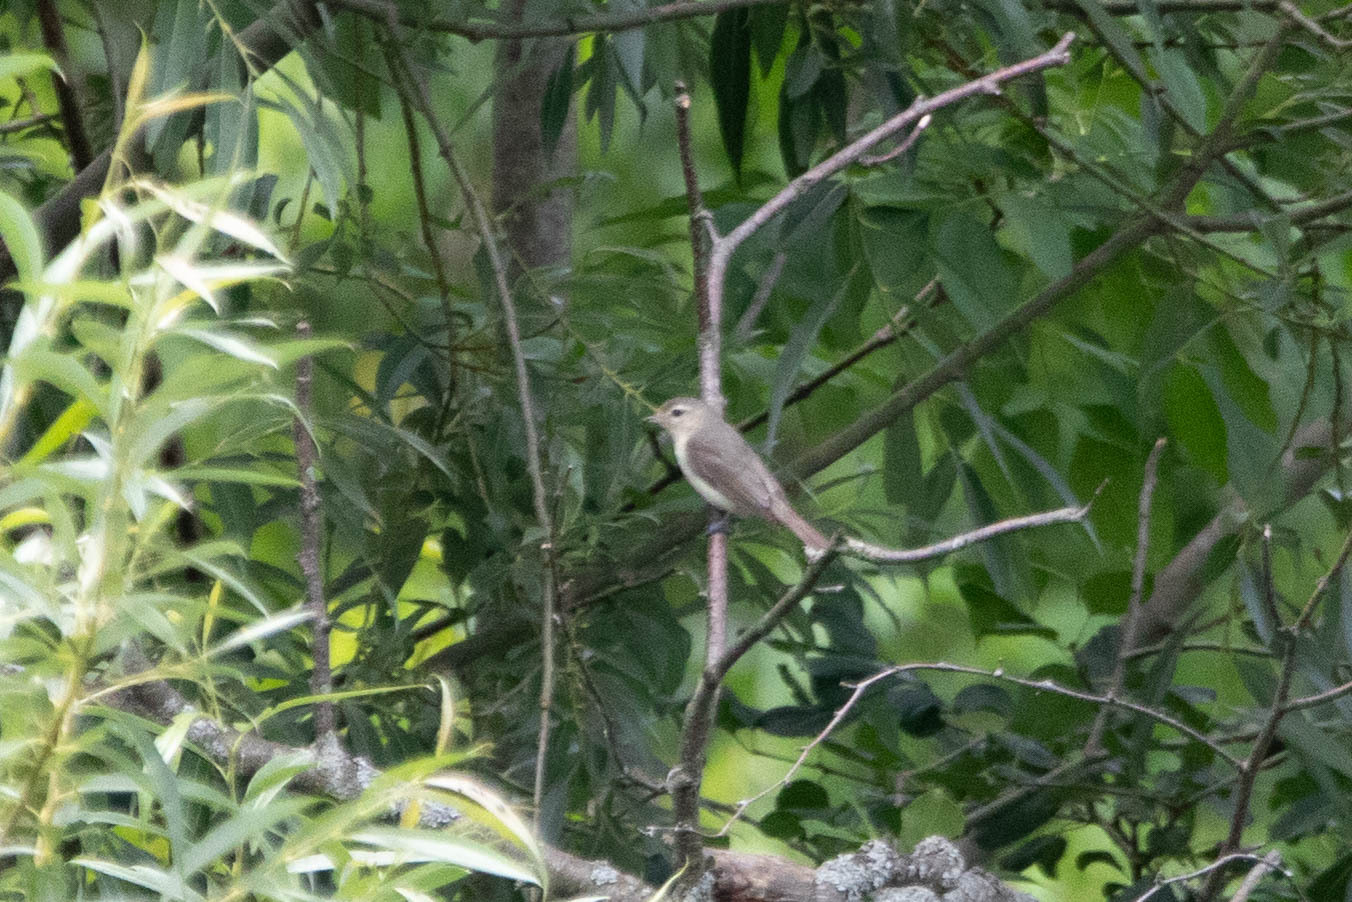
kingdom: Animalia
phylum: Chordata
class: Aves
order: Passeriformes
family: Vireonidae
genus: Vireo
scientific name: Vireo gilvus
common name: Warbling vireo
